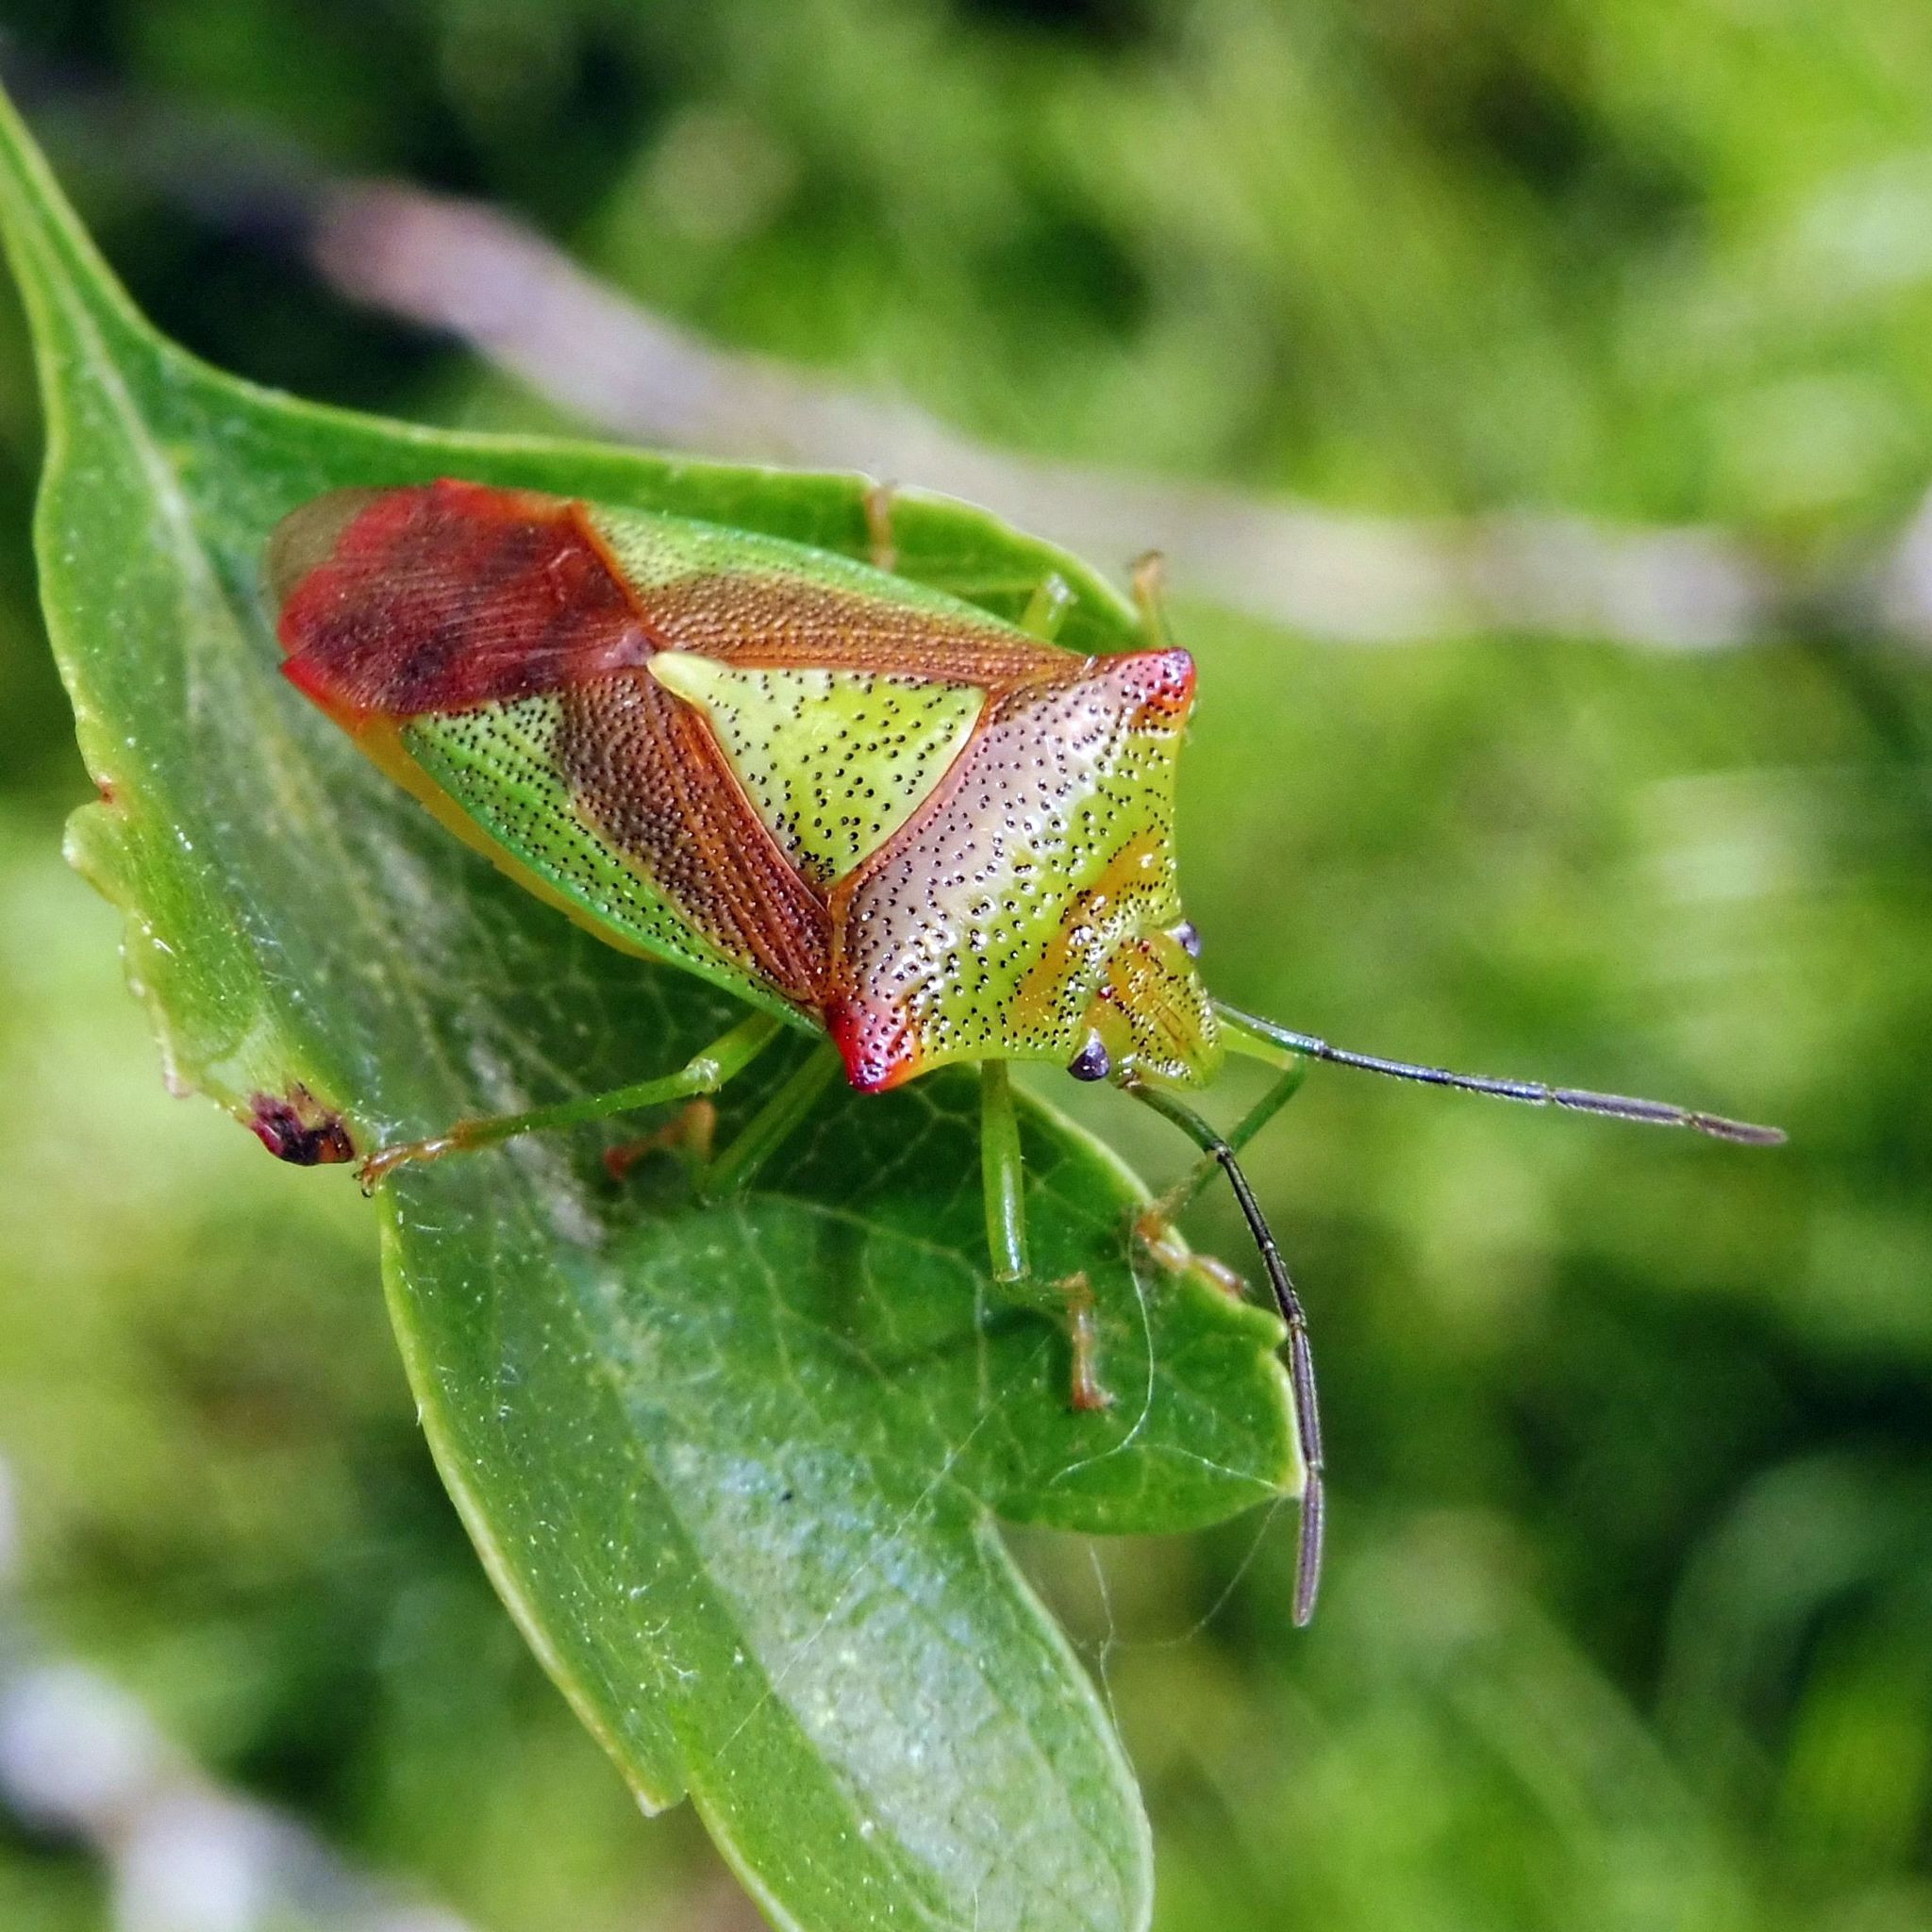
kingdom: Animalia
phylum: Arthropoda
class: Insecta
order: Hemiptera
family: Acanthosomatidae
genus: Acanthosoma
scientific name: Acanthosoma haemorrhoidale
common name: Hawthorn shieldbug
